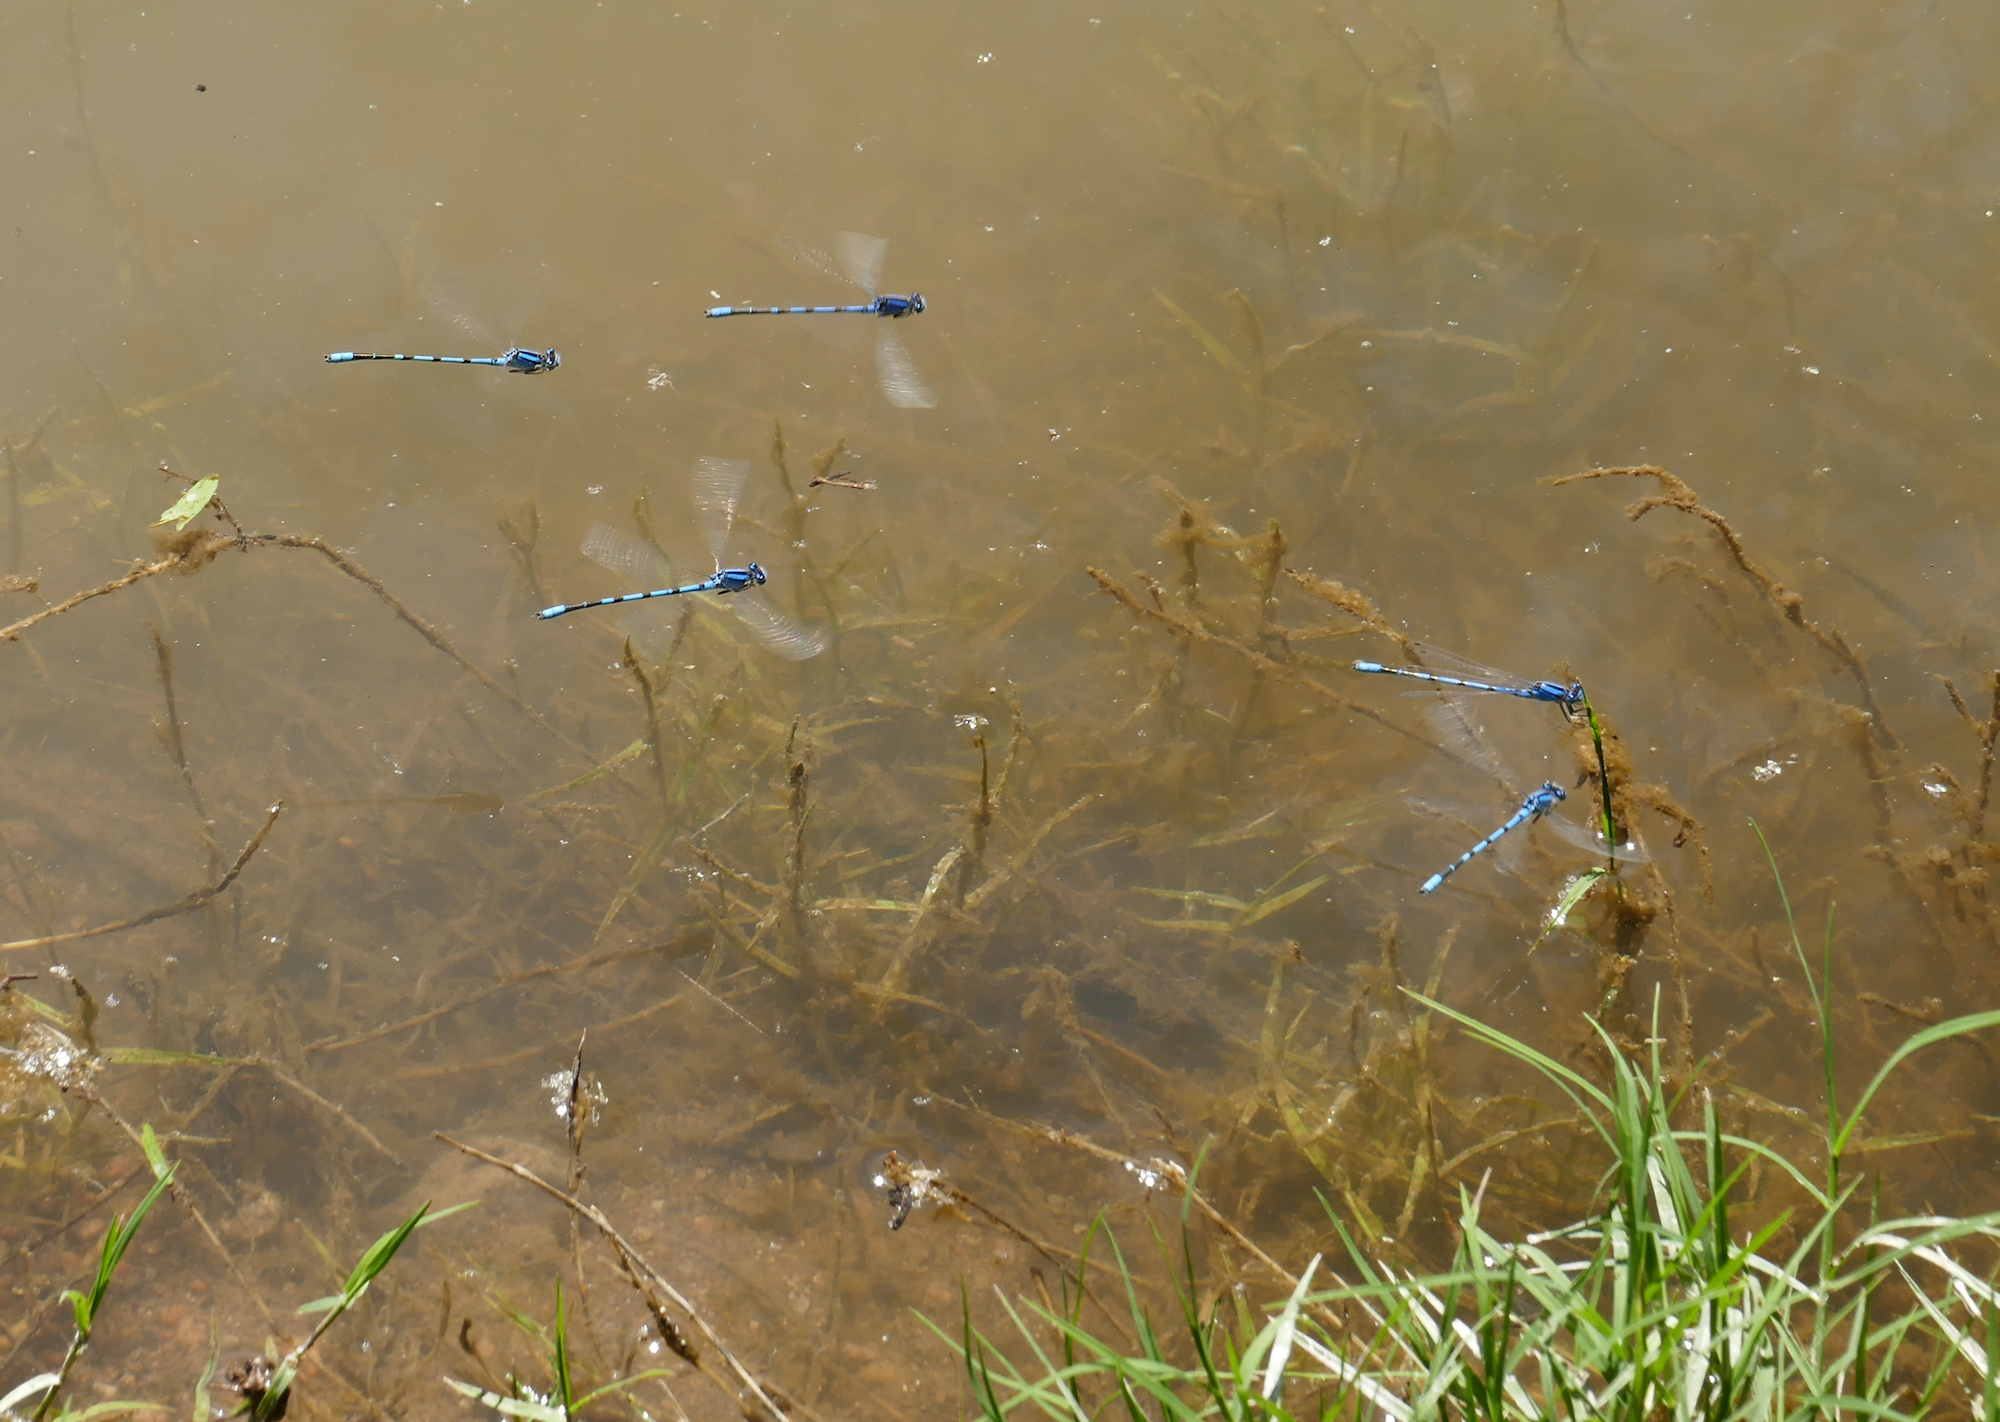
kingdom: Animalia
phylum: Arthropoda
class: Insecta
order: Odonata
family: Coenagrionidae
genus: Enallagma
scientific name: Enallagma civile
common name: Damselfly
